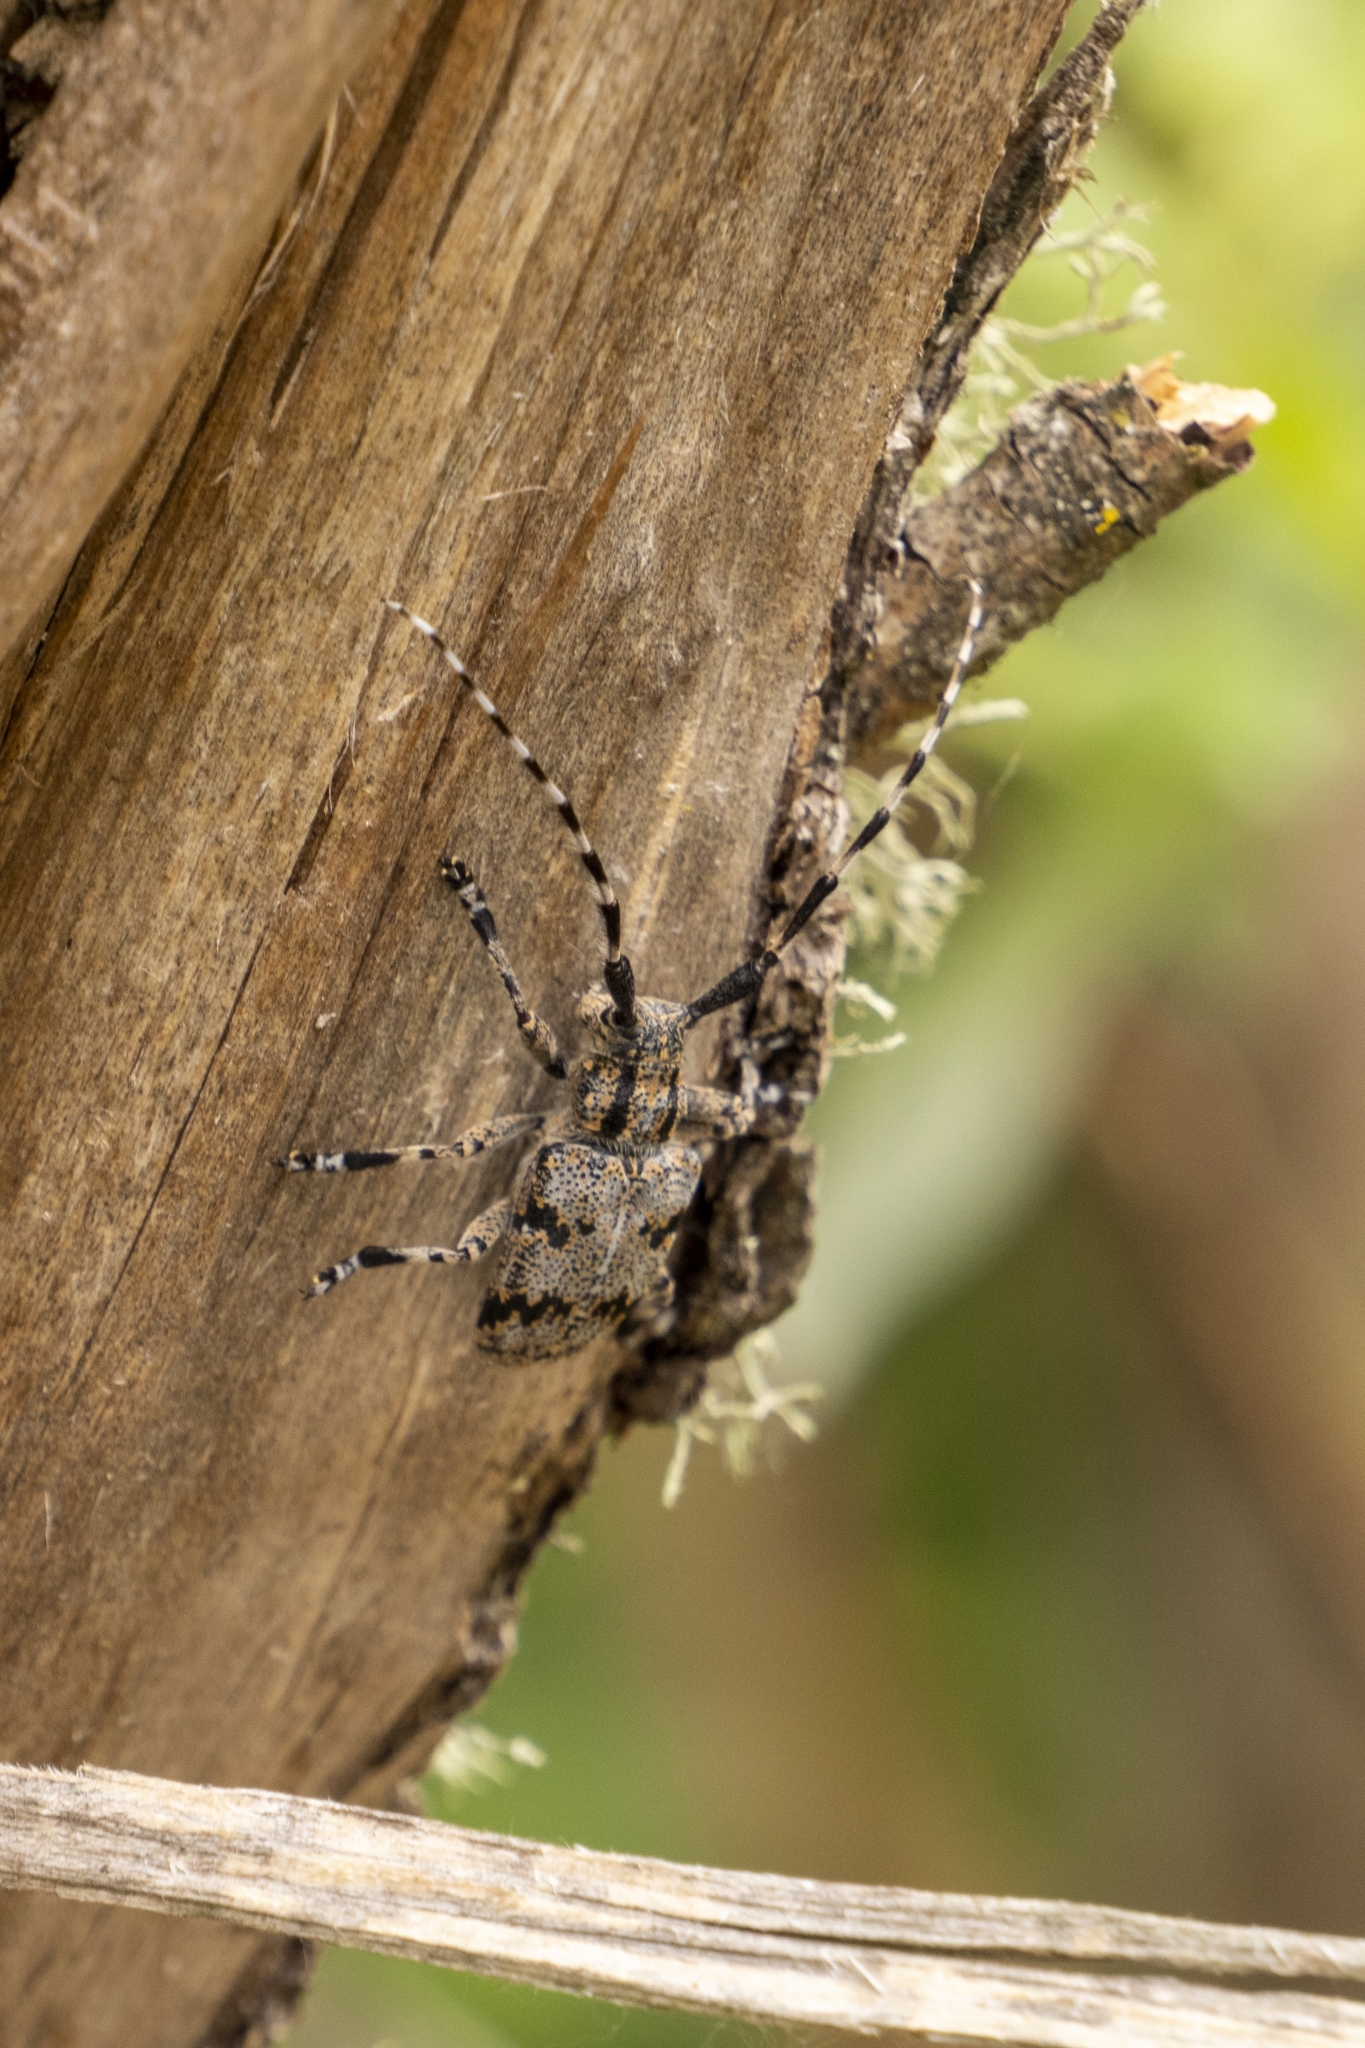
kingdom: Animalia
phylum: Arthropoda
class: Insecta
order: Coleoptera
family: Cerambycidae
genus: Synaphaeta
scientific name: Synaphaeta guexi
